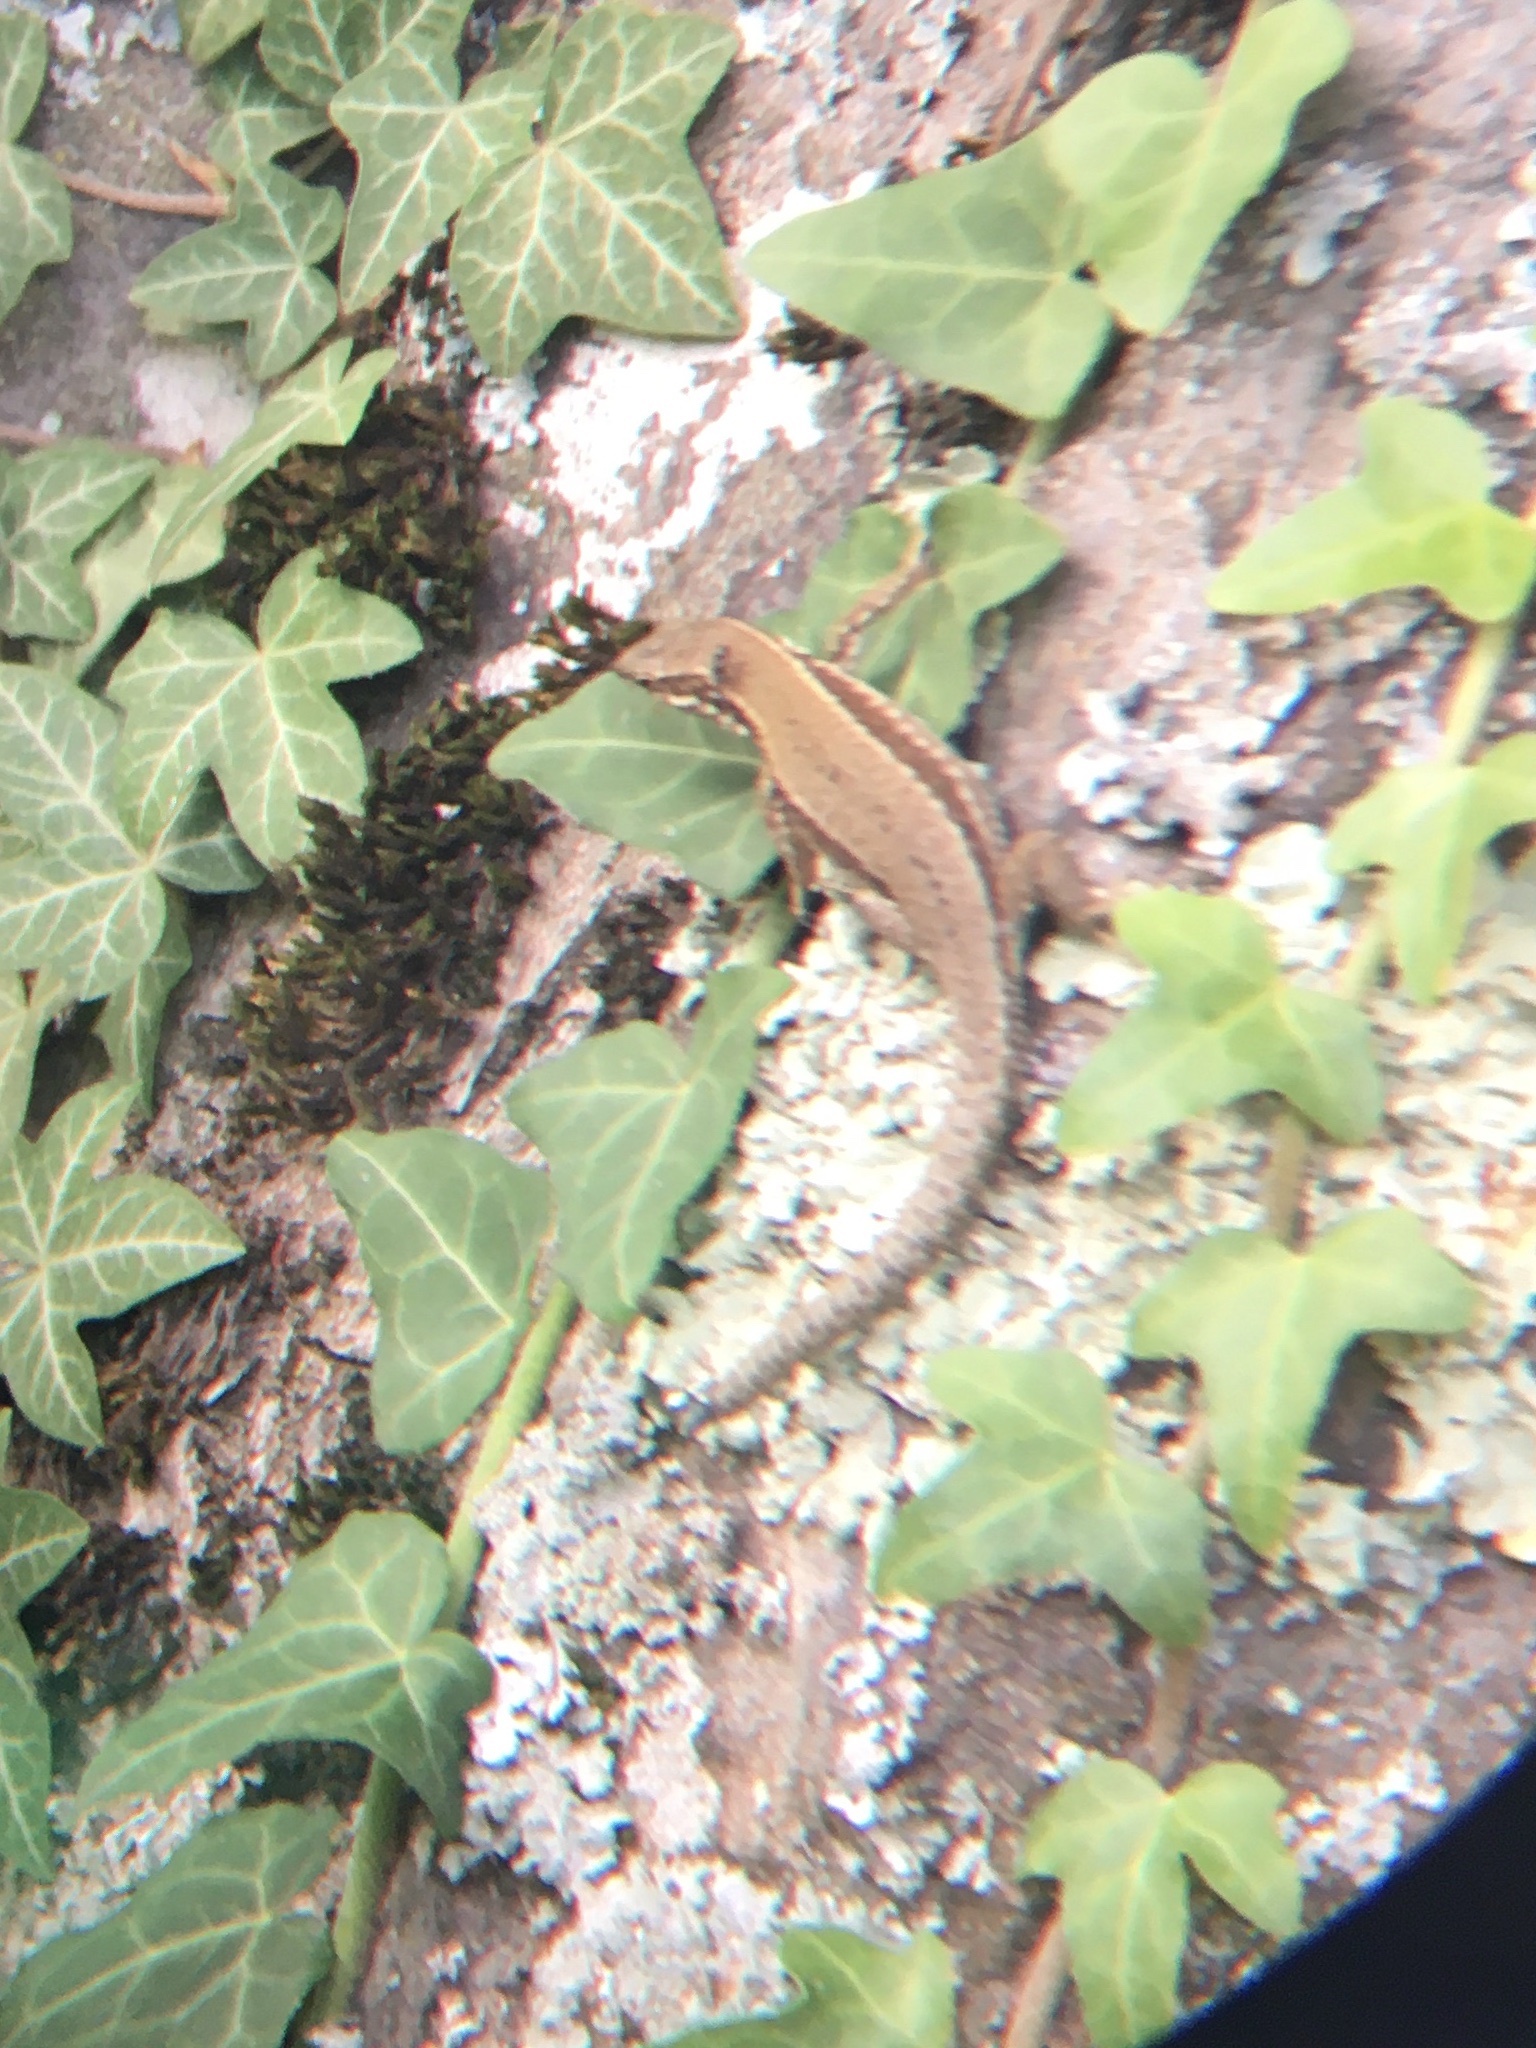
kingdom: Animalia
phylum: Chordata
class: Squamata
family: Lacertidae
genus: Podarcis
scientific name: Podarcis muralis
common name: Common wall lizard
